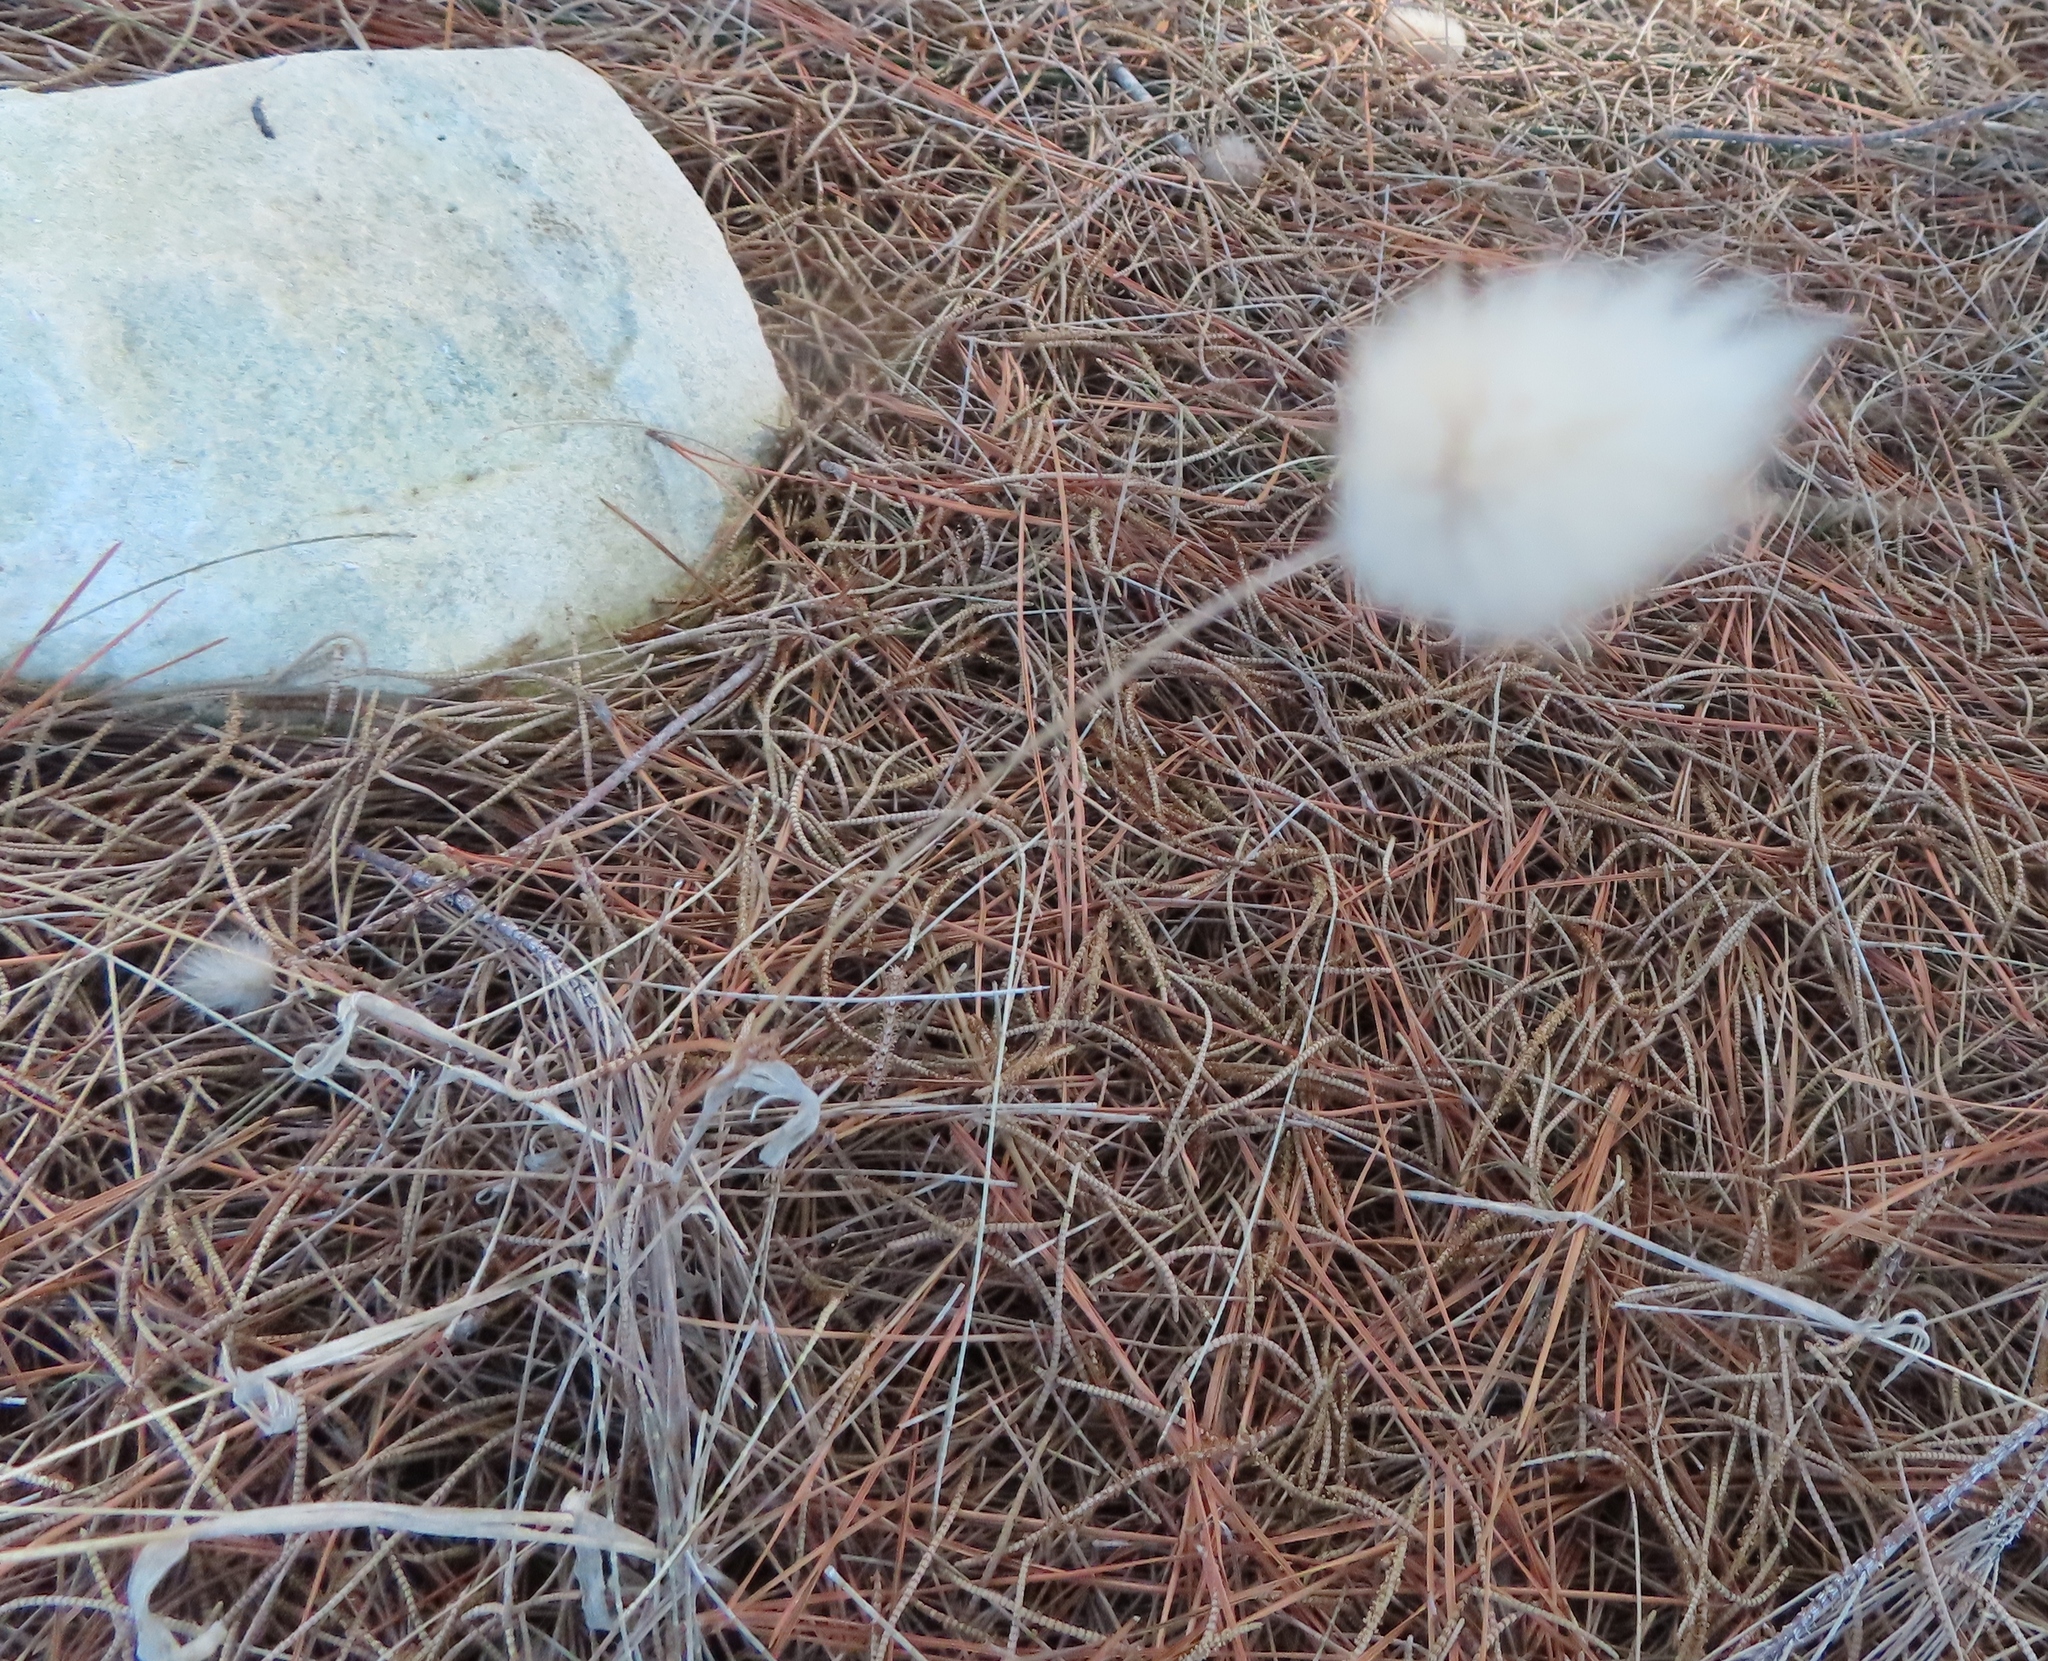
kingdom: Plantae
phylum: Tracheophyta
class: Liliopsida
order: Poales
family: Poaceae
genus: Lagurus
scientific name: Lagurus ovatus
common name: Hare's-tail
